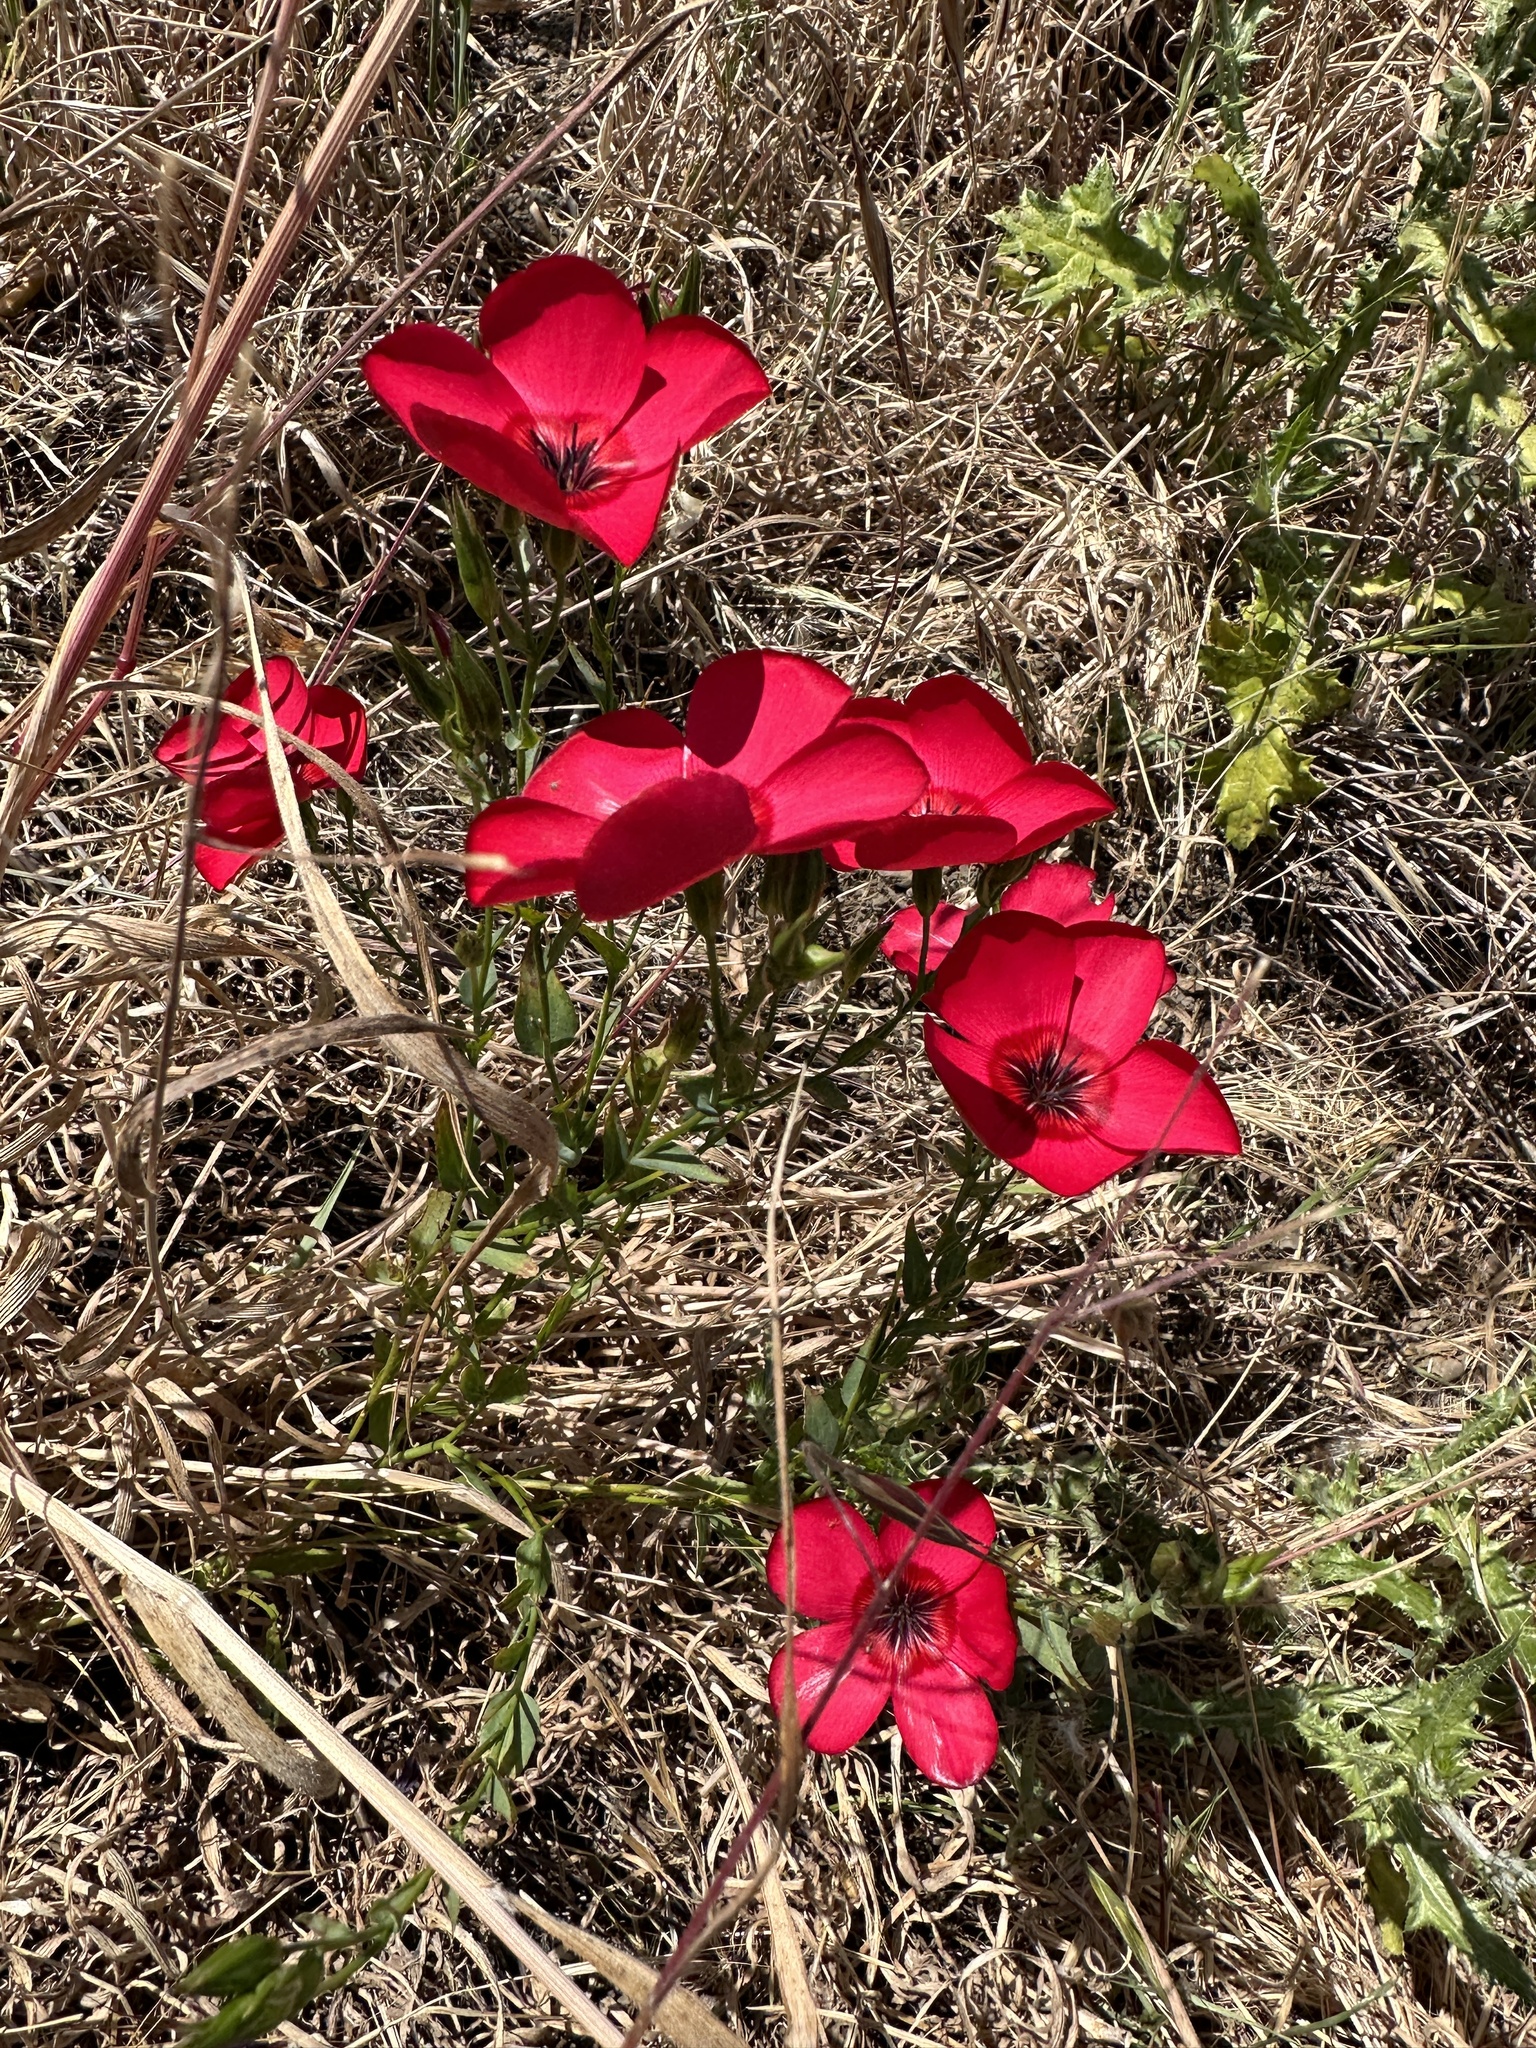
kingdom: Plantae
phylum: Tracheophyta
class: Magnoliopsida
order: Malpighiales
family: Linaceae
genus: Linum
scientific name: Linum grandiflorum
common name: Crimson flax
